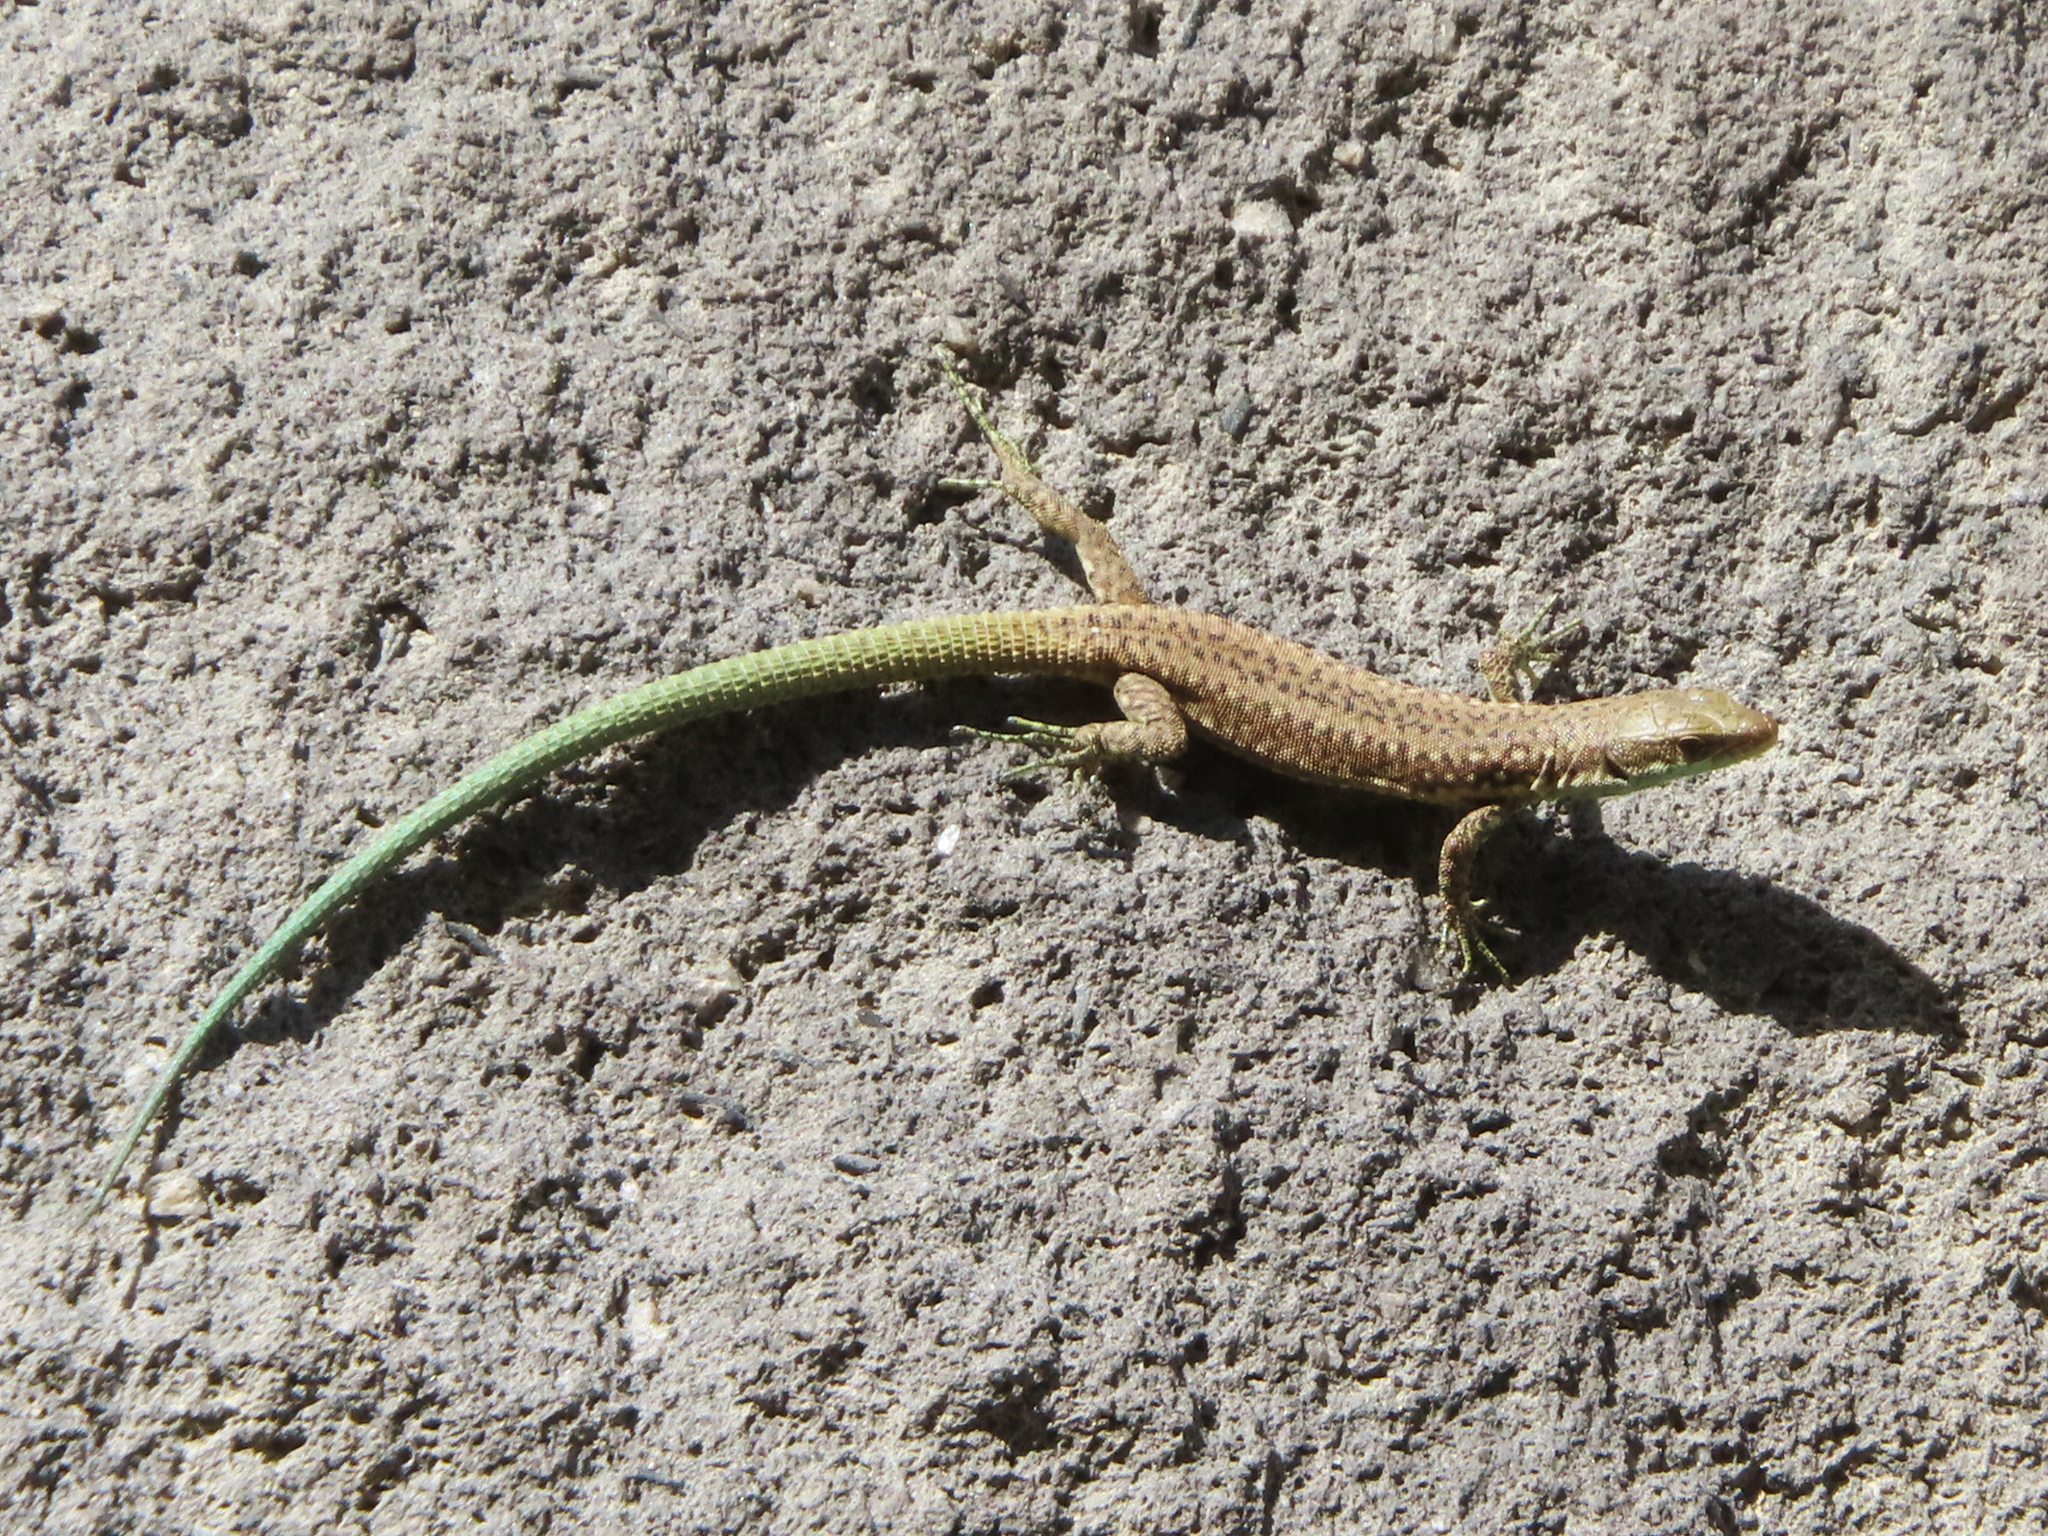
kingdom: Animalia
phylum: Chordata
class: Squamata
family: Lacertidae
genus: Darevskia
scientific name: Darevskia raddei
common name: Radde's lizard
